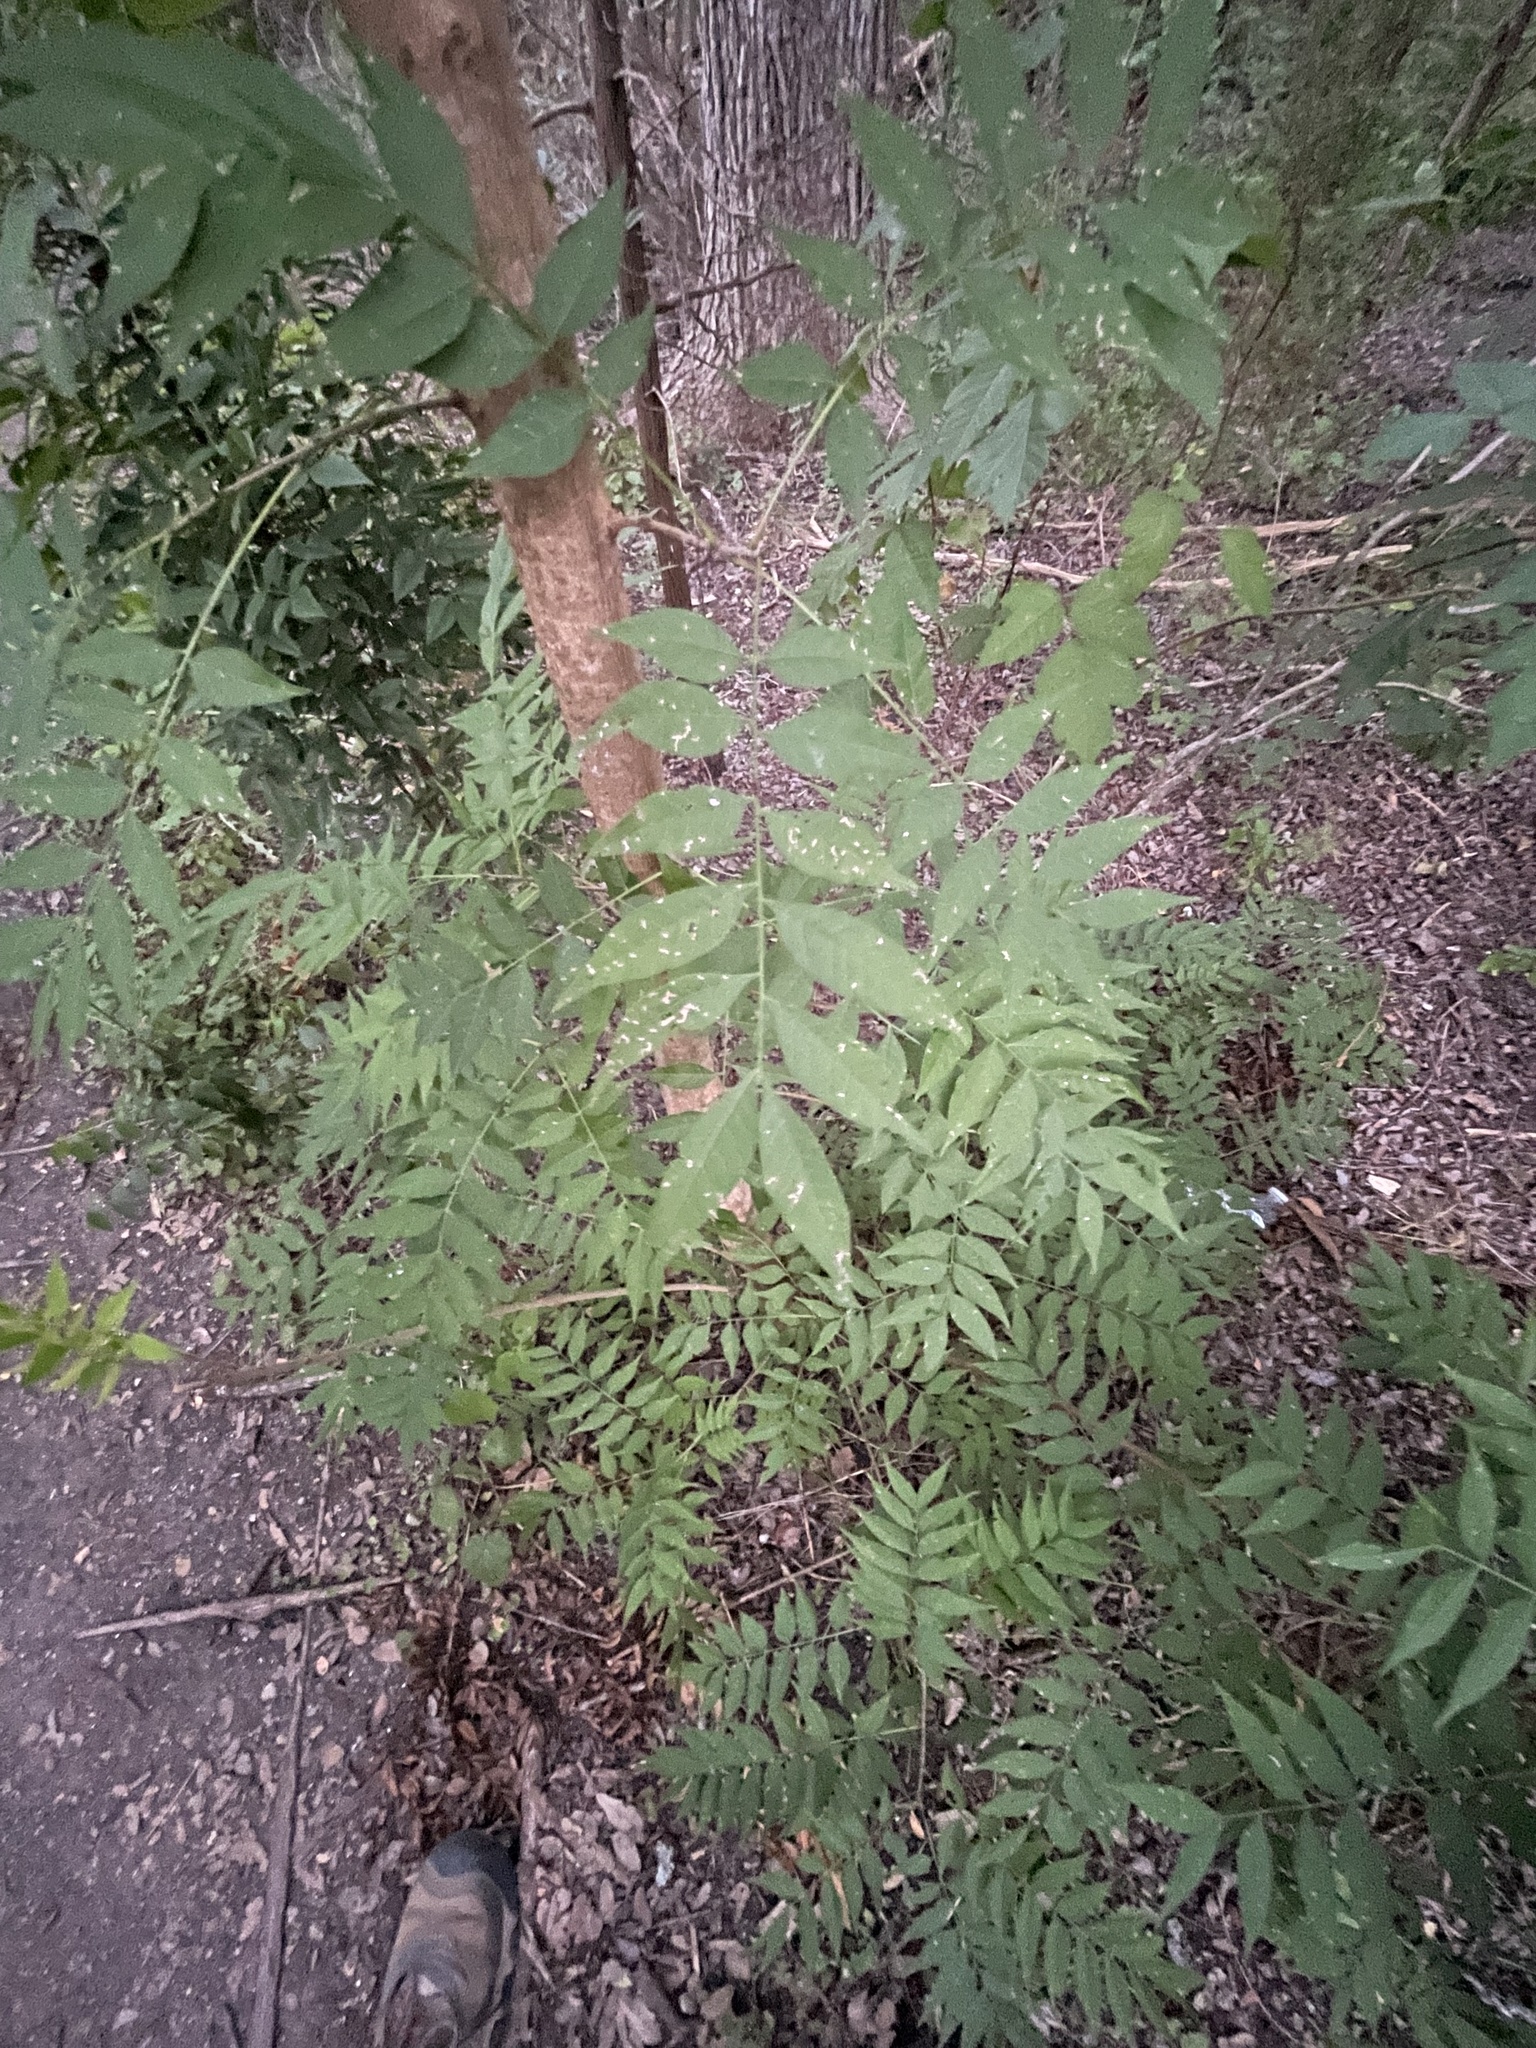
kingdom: Plantae
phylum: Tracheophyta
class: Magnoliopsida
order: Sapindales
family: Anacardiaceae
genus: Pistacia
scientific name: Pistacia chinensis
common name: Chinese pistache
